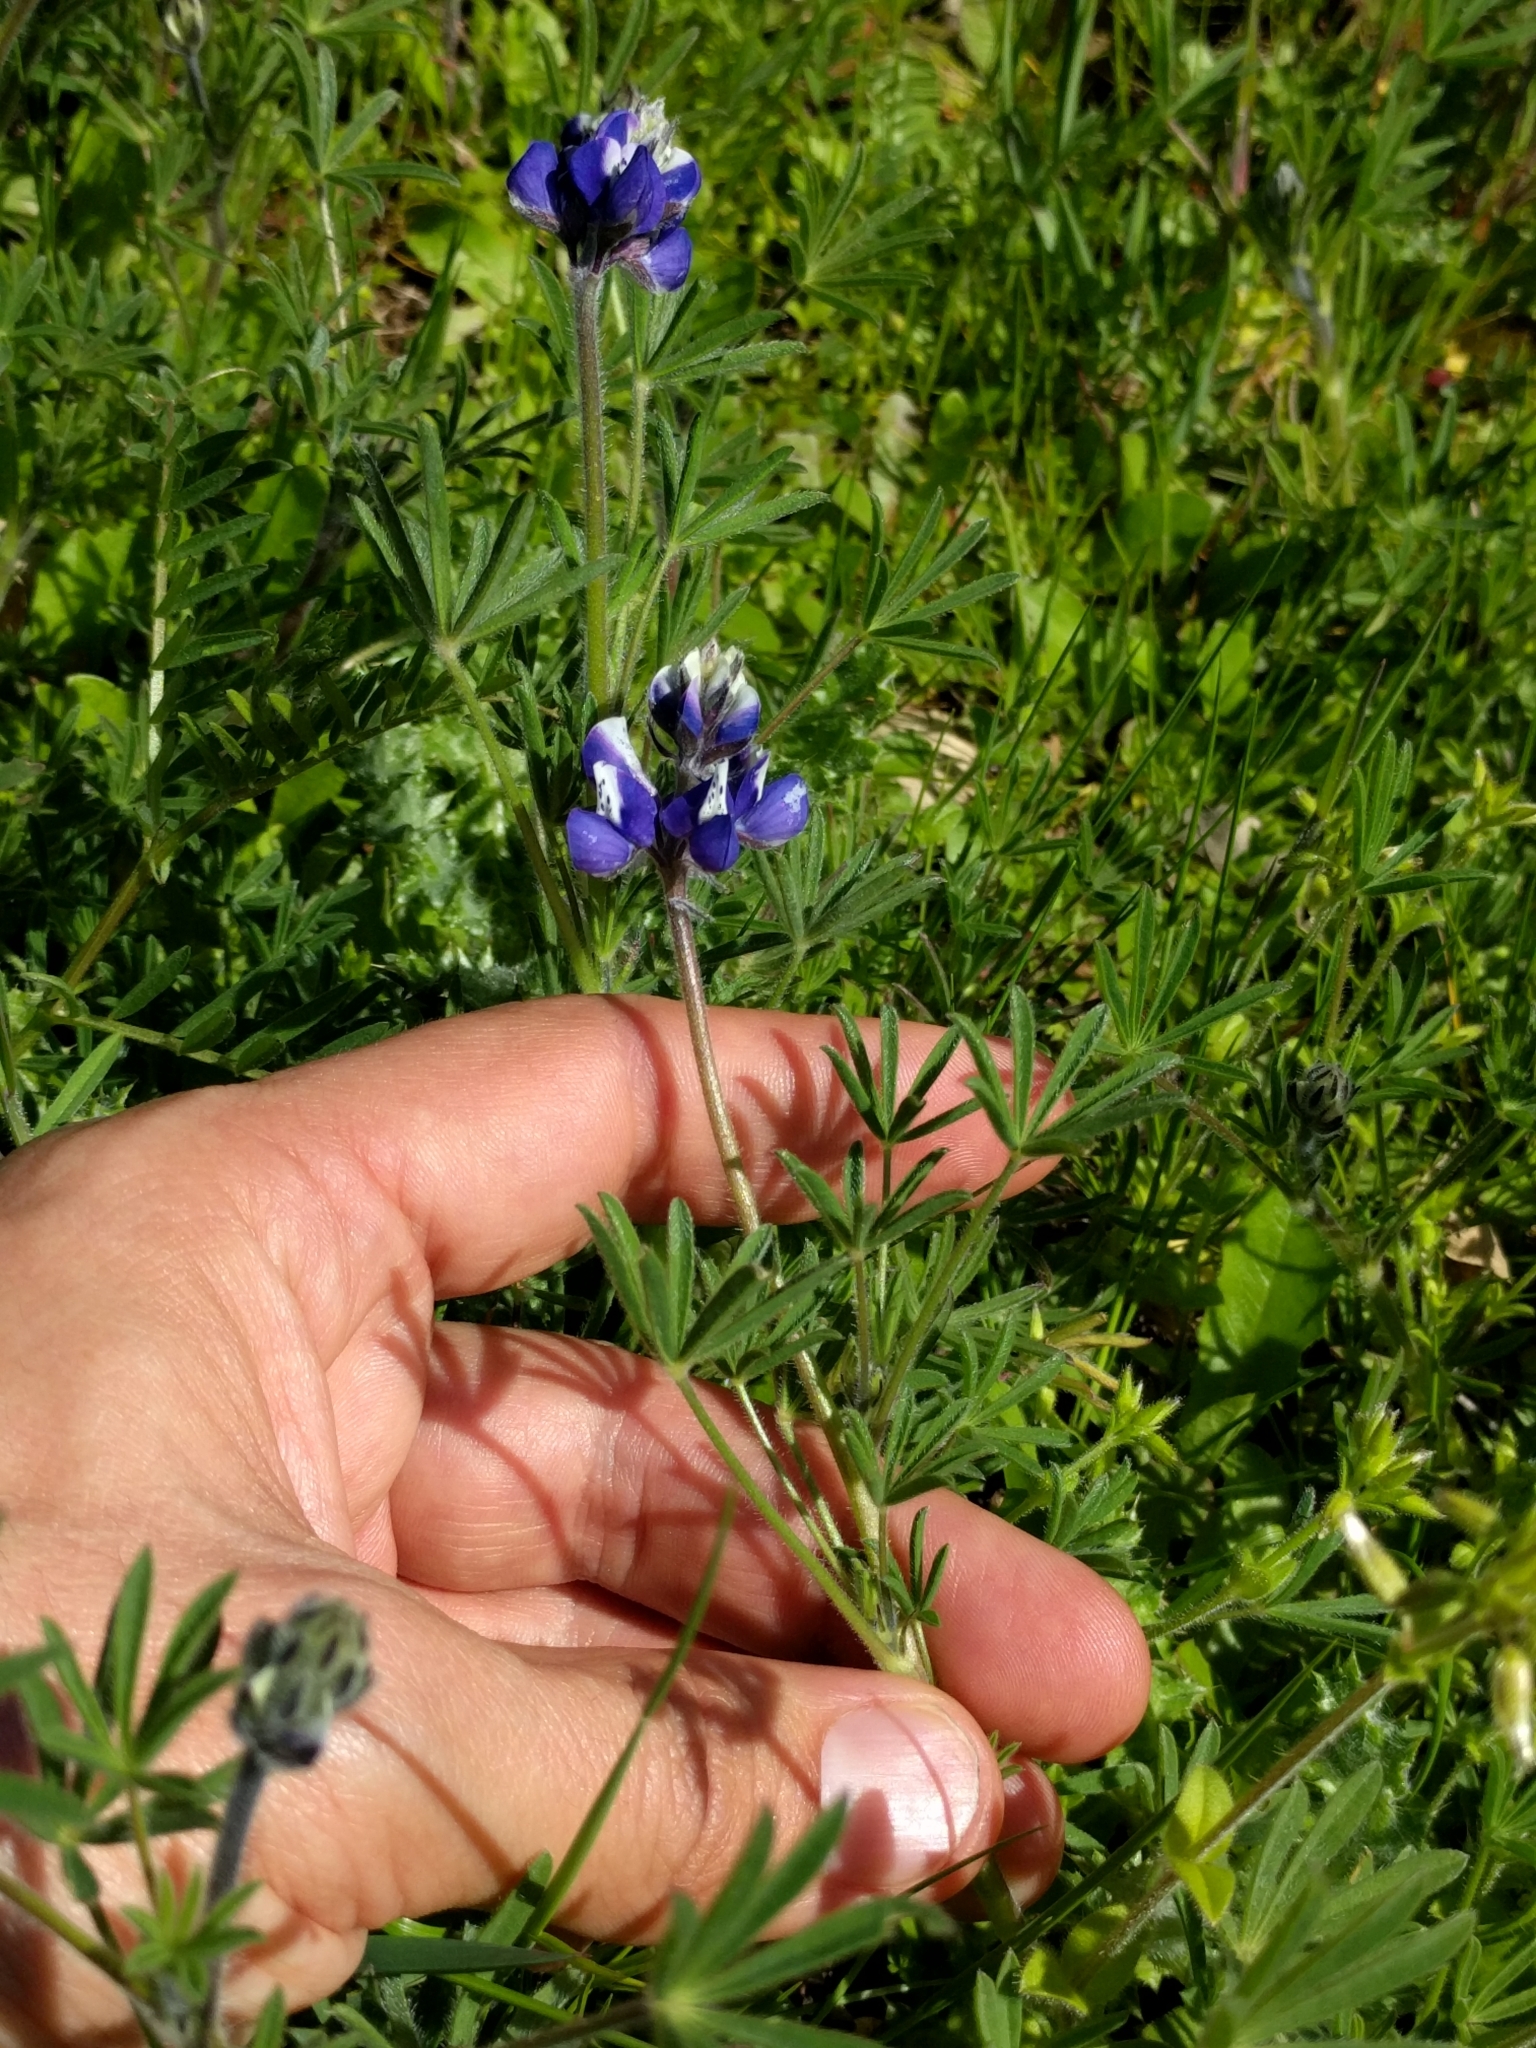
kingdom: Plantae
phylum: Tracheophyta
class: Magnoliopsida
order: Fabales
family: Fabaceae
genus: Lupinus
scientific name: Lupinus bicolor
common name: Miniature lupine
